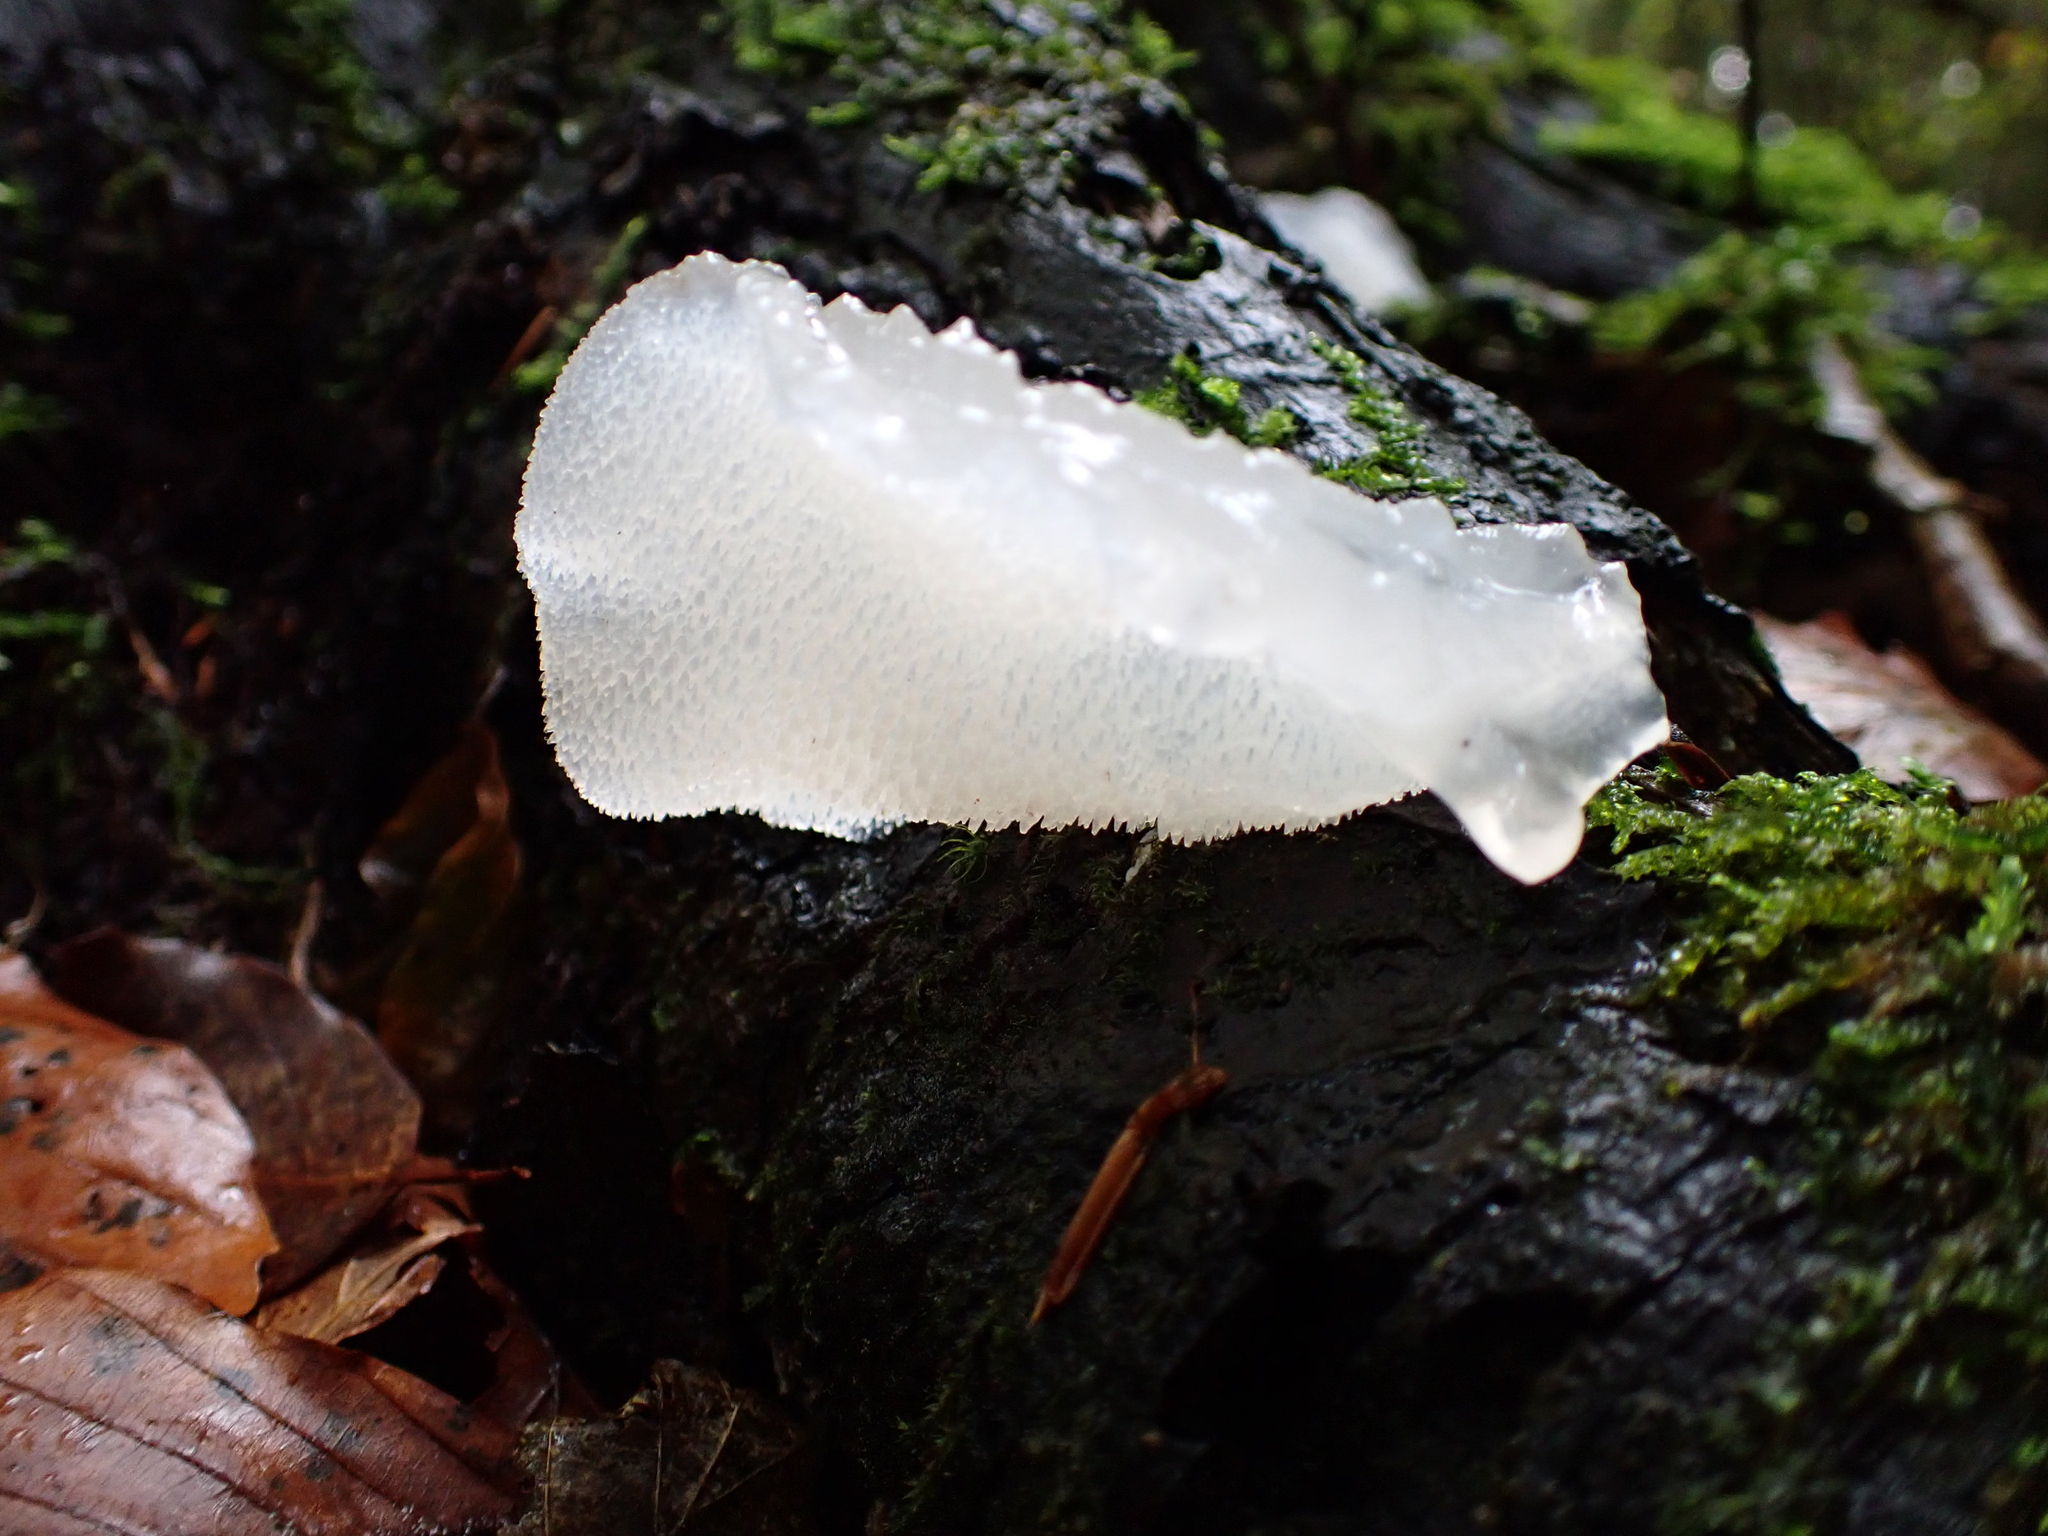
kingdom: Fungi
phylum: Basidiomycota
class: Agaricomycetes
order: Auriculariales
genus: Pseudohydnum
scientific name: Pseudohydnum gelatinosum
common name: Jelly tongue
